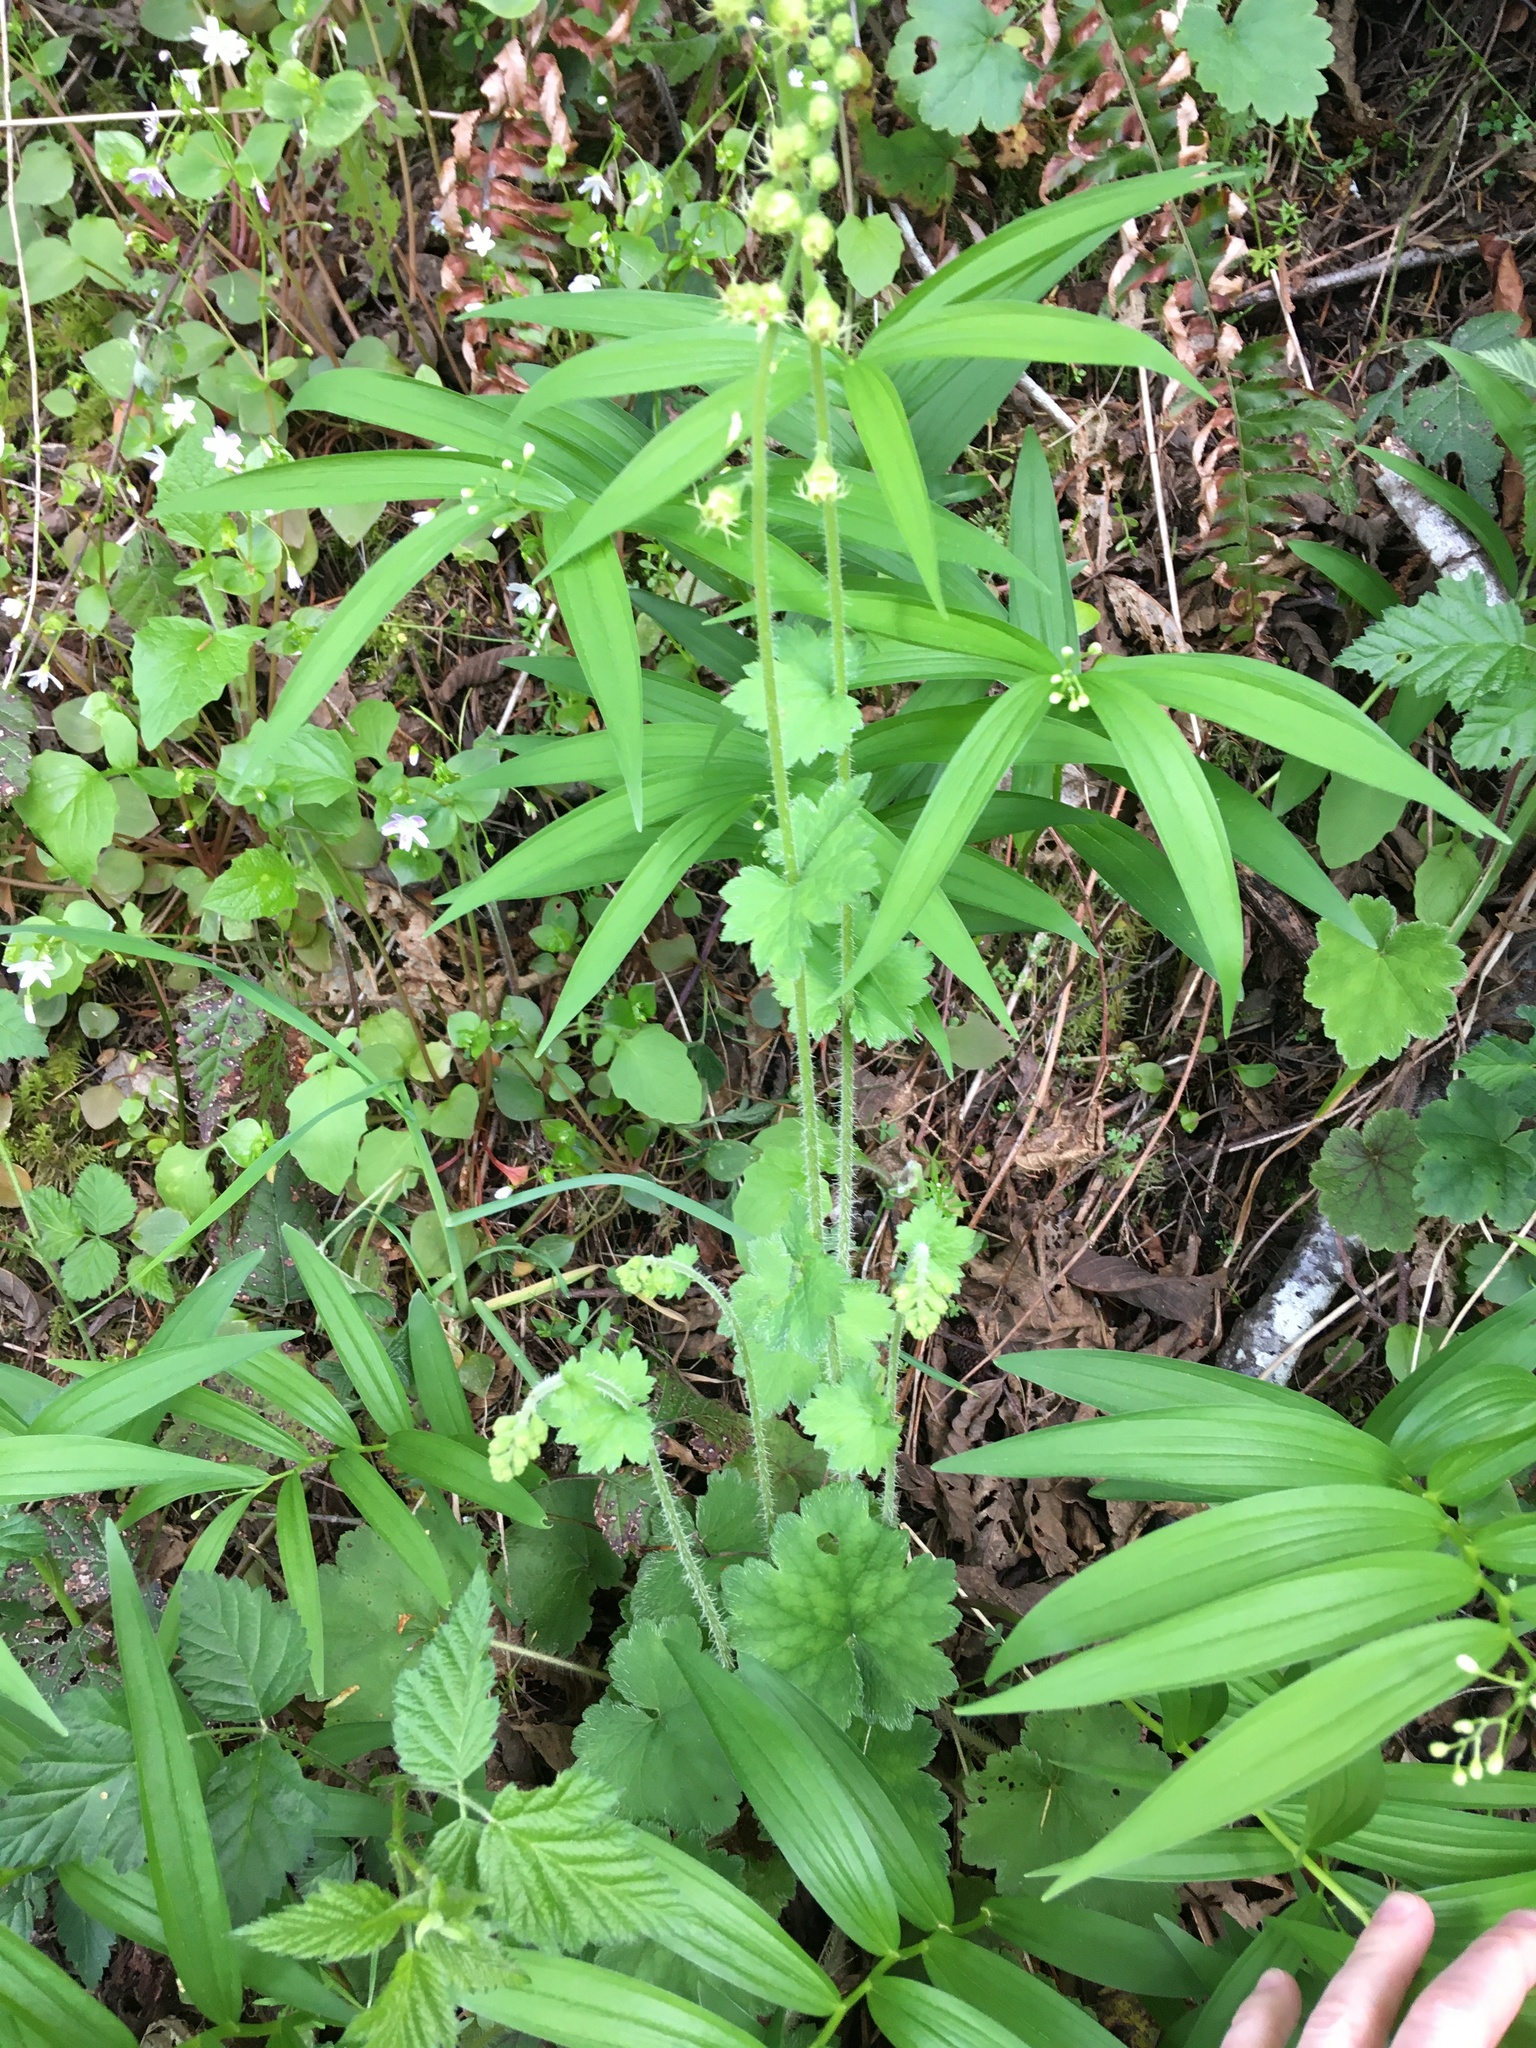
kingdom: Plantae
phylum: Tracheophyta
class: Magnoliopsida
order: Saxifragales
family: Saxifragaceae
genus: Tellima
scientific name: Tellima grandiflora
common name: Fringecups
